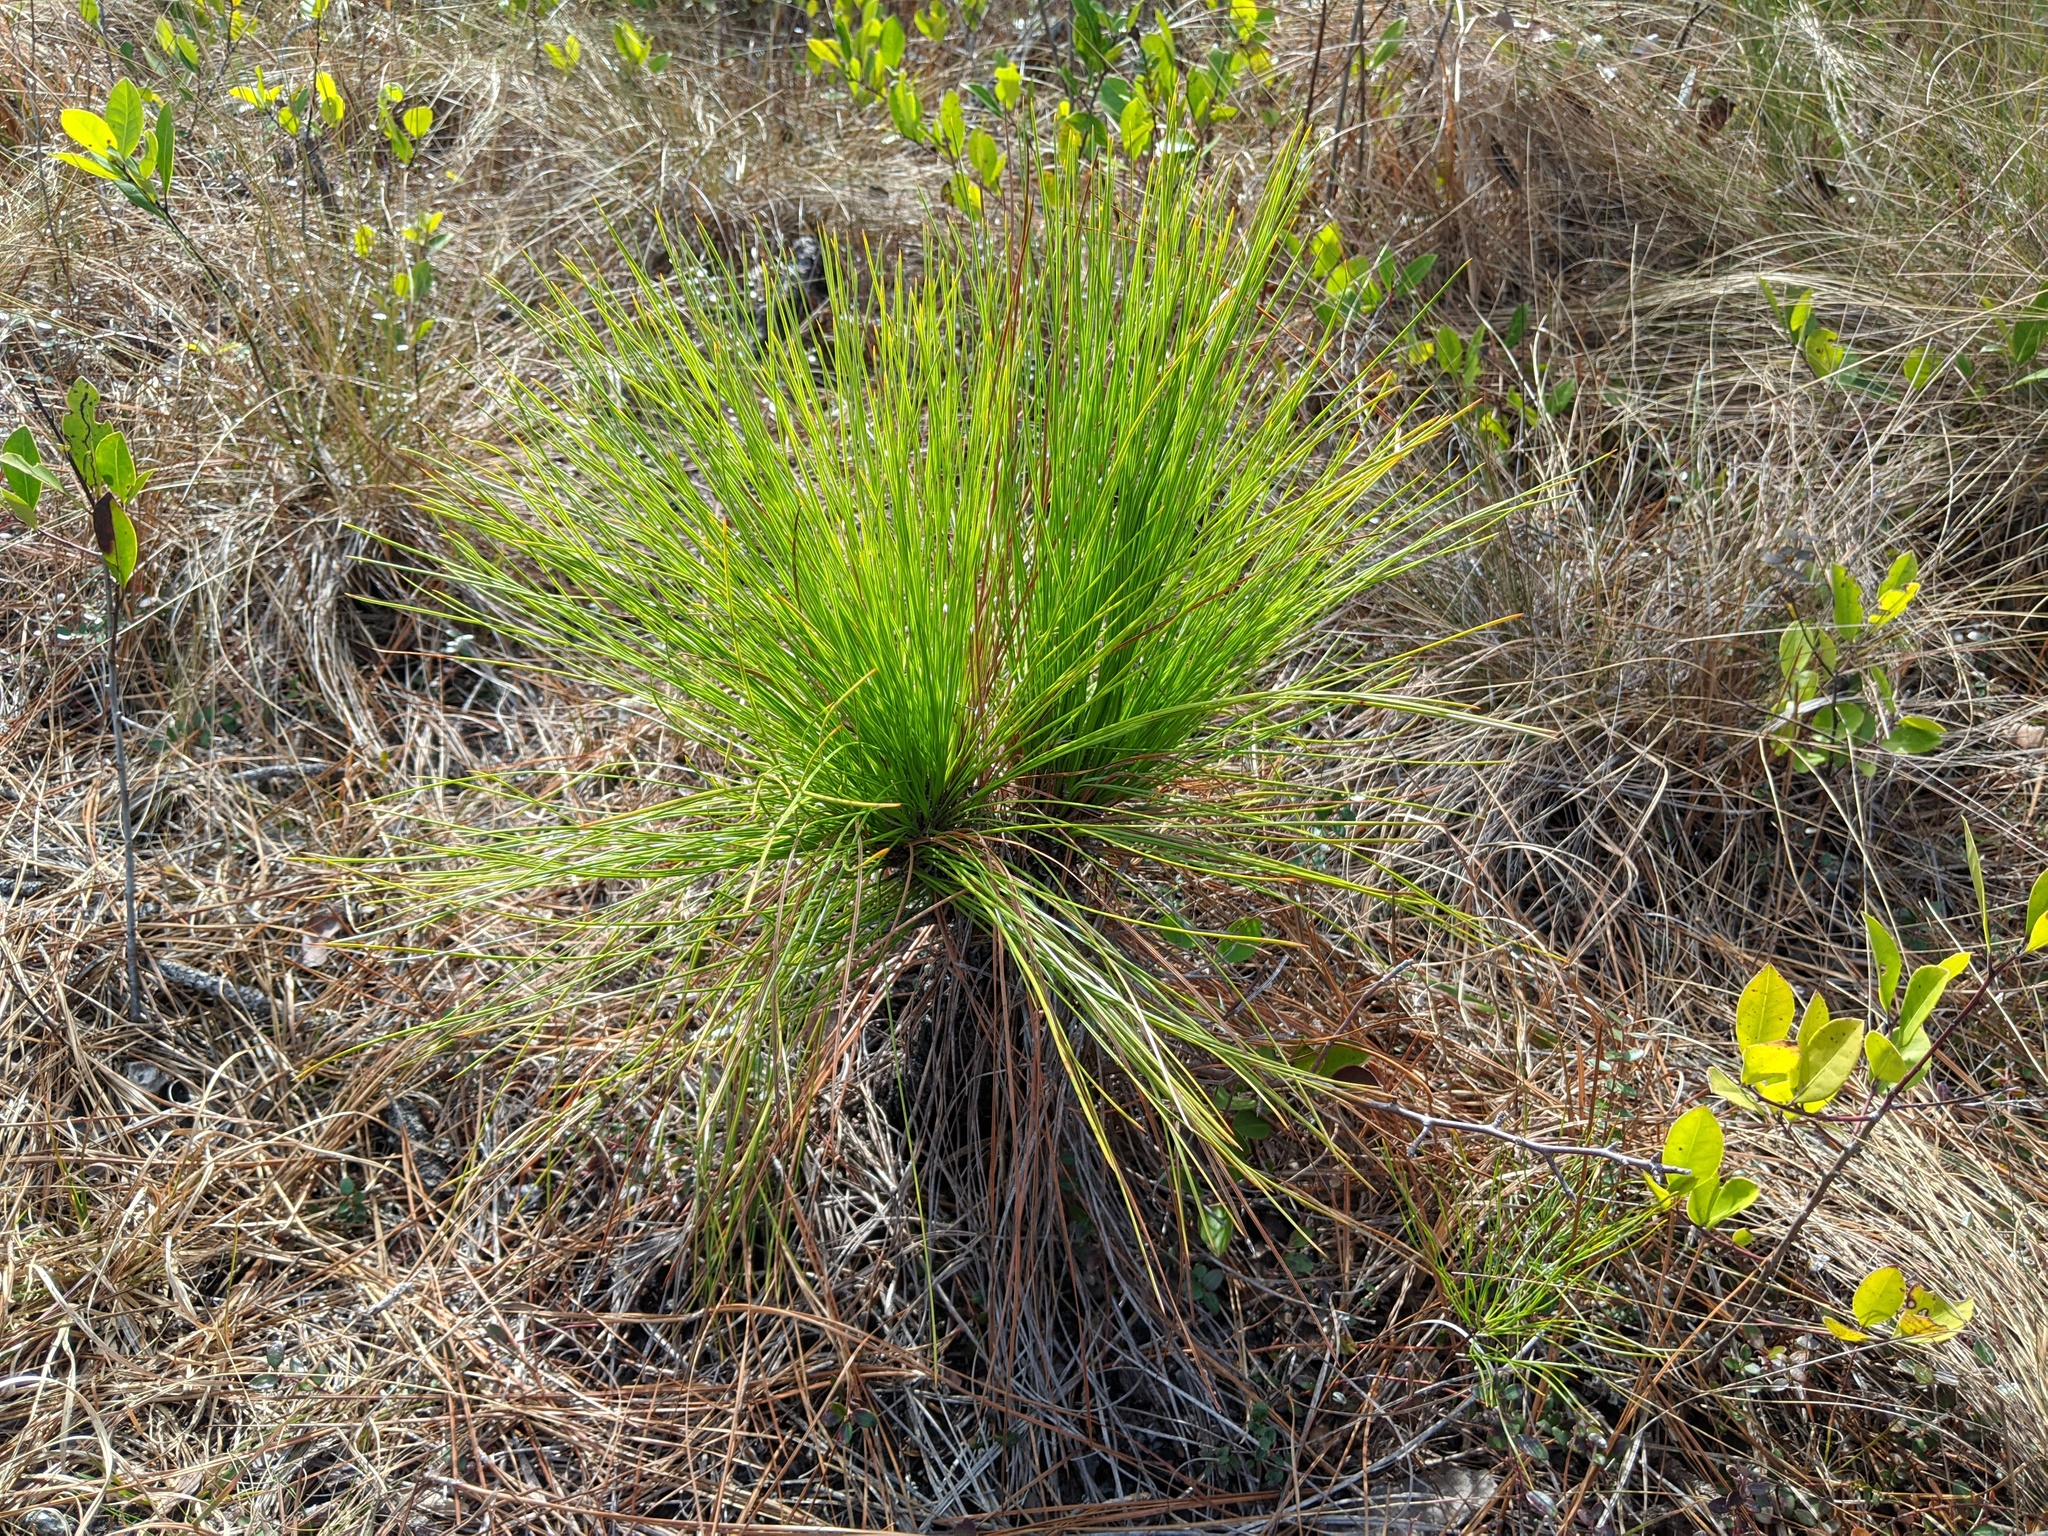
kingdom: Plantae
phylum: Tracheophyta
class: Pinopsida
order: Pinales
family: Pinaceae
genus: Pinus
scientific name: Pinus palustris
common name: Longleaf pine
